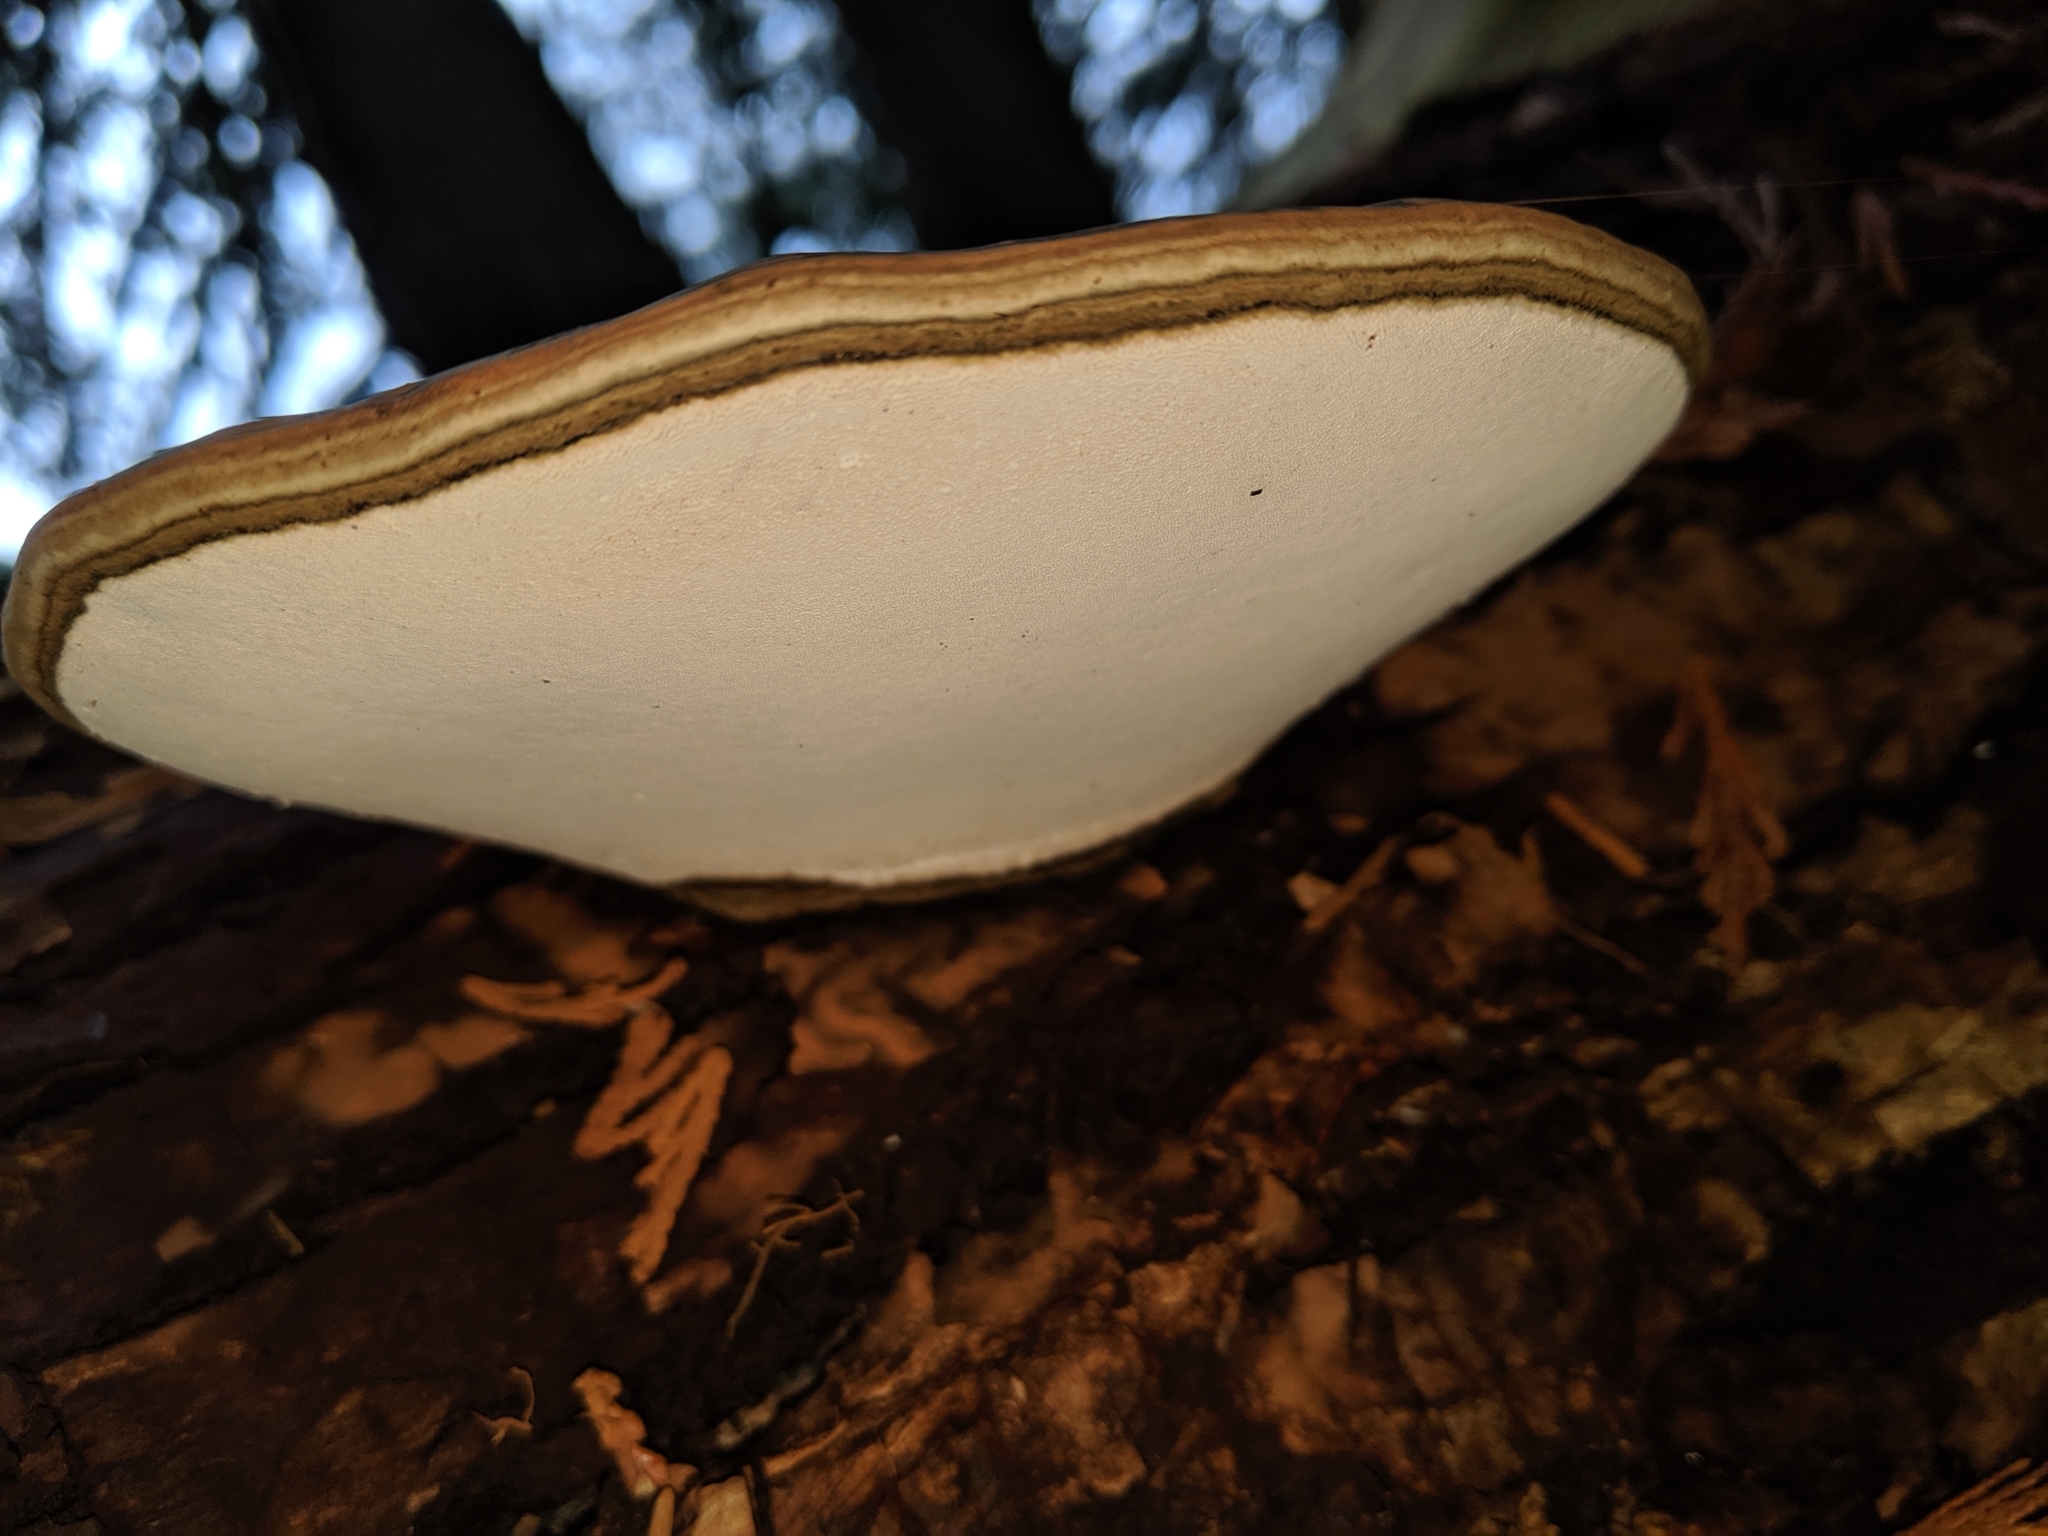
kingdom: Fungi
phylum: Basidiomycota
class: Agaricomycetes
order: Polyporales
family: Polyporaceae
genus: Ganoderma
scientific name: Ganoderma applanatum
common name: Artist's bracket
